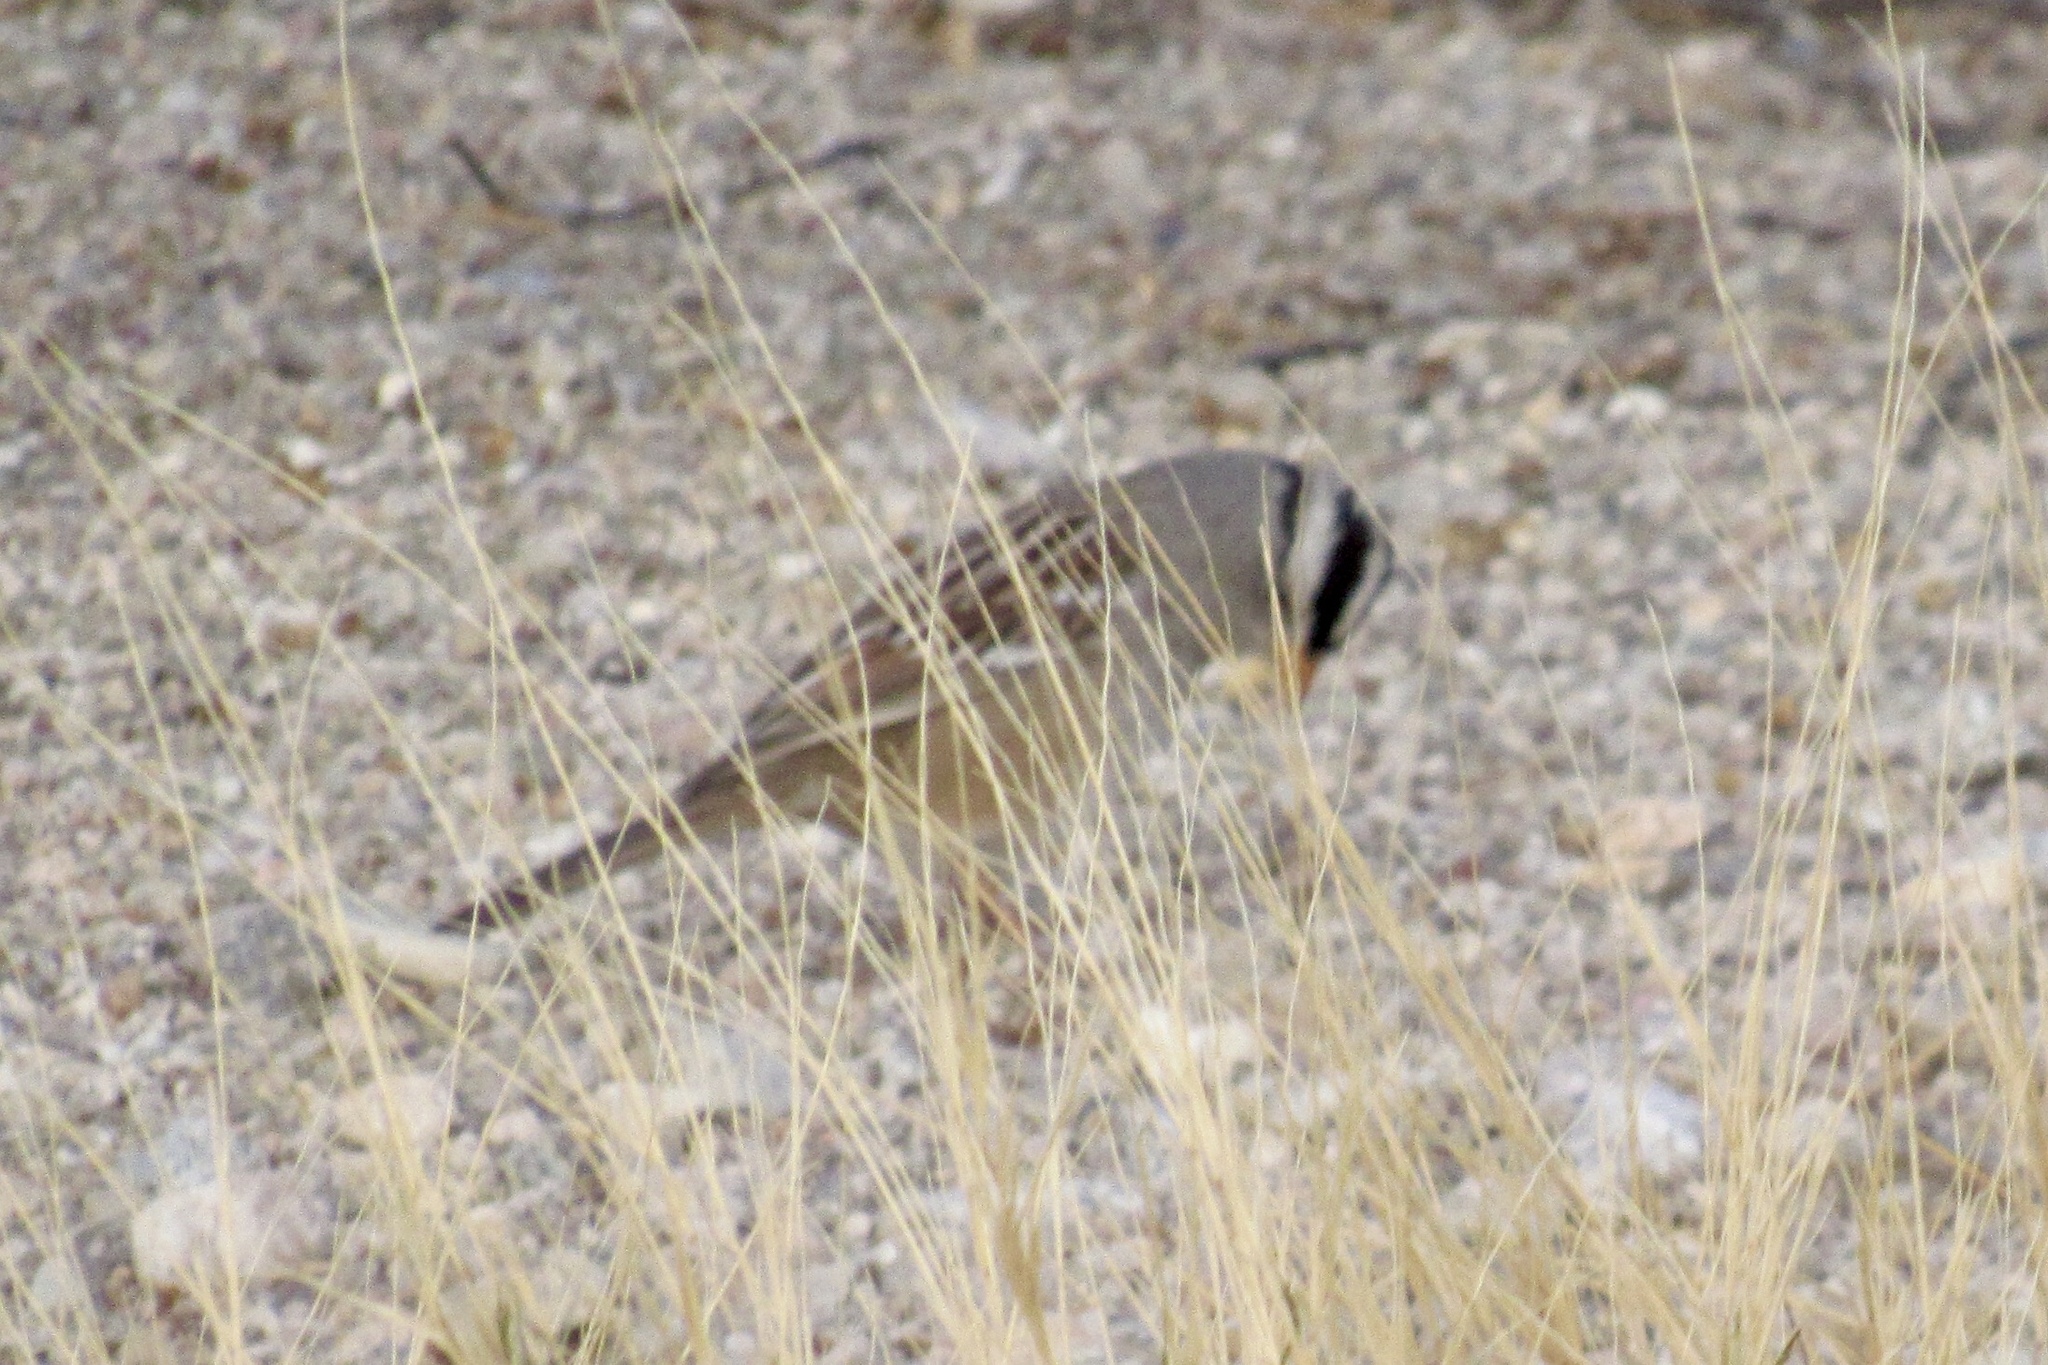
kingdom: Animalia
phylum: Chordata
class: Aves
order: Passeriformes
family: Passerellidae
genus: Zonotrichia
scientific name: Zonotrichia leucophrys
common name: White-crowned sparrow
